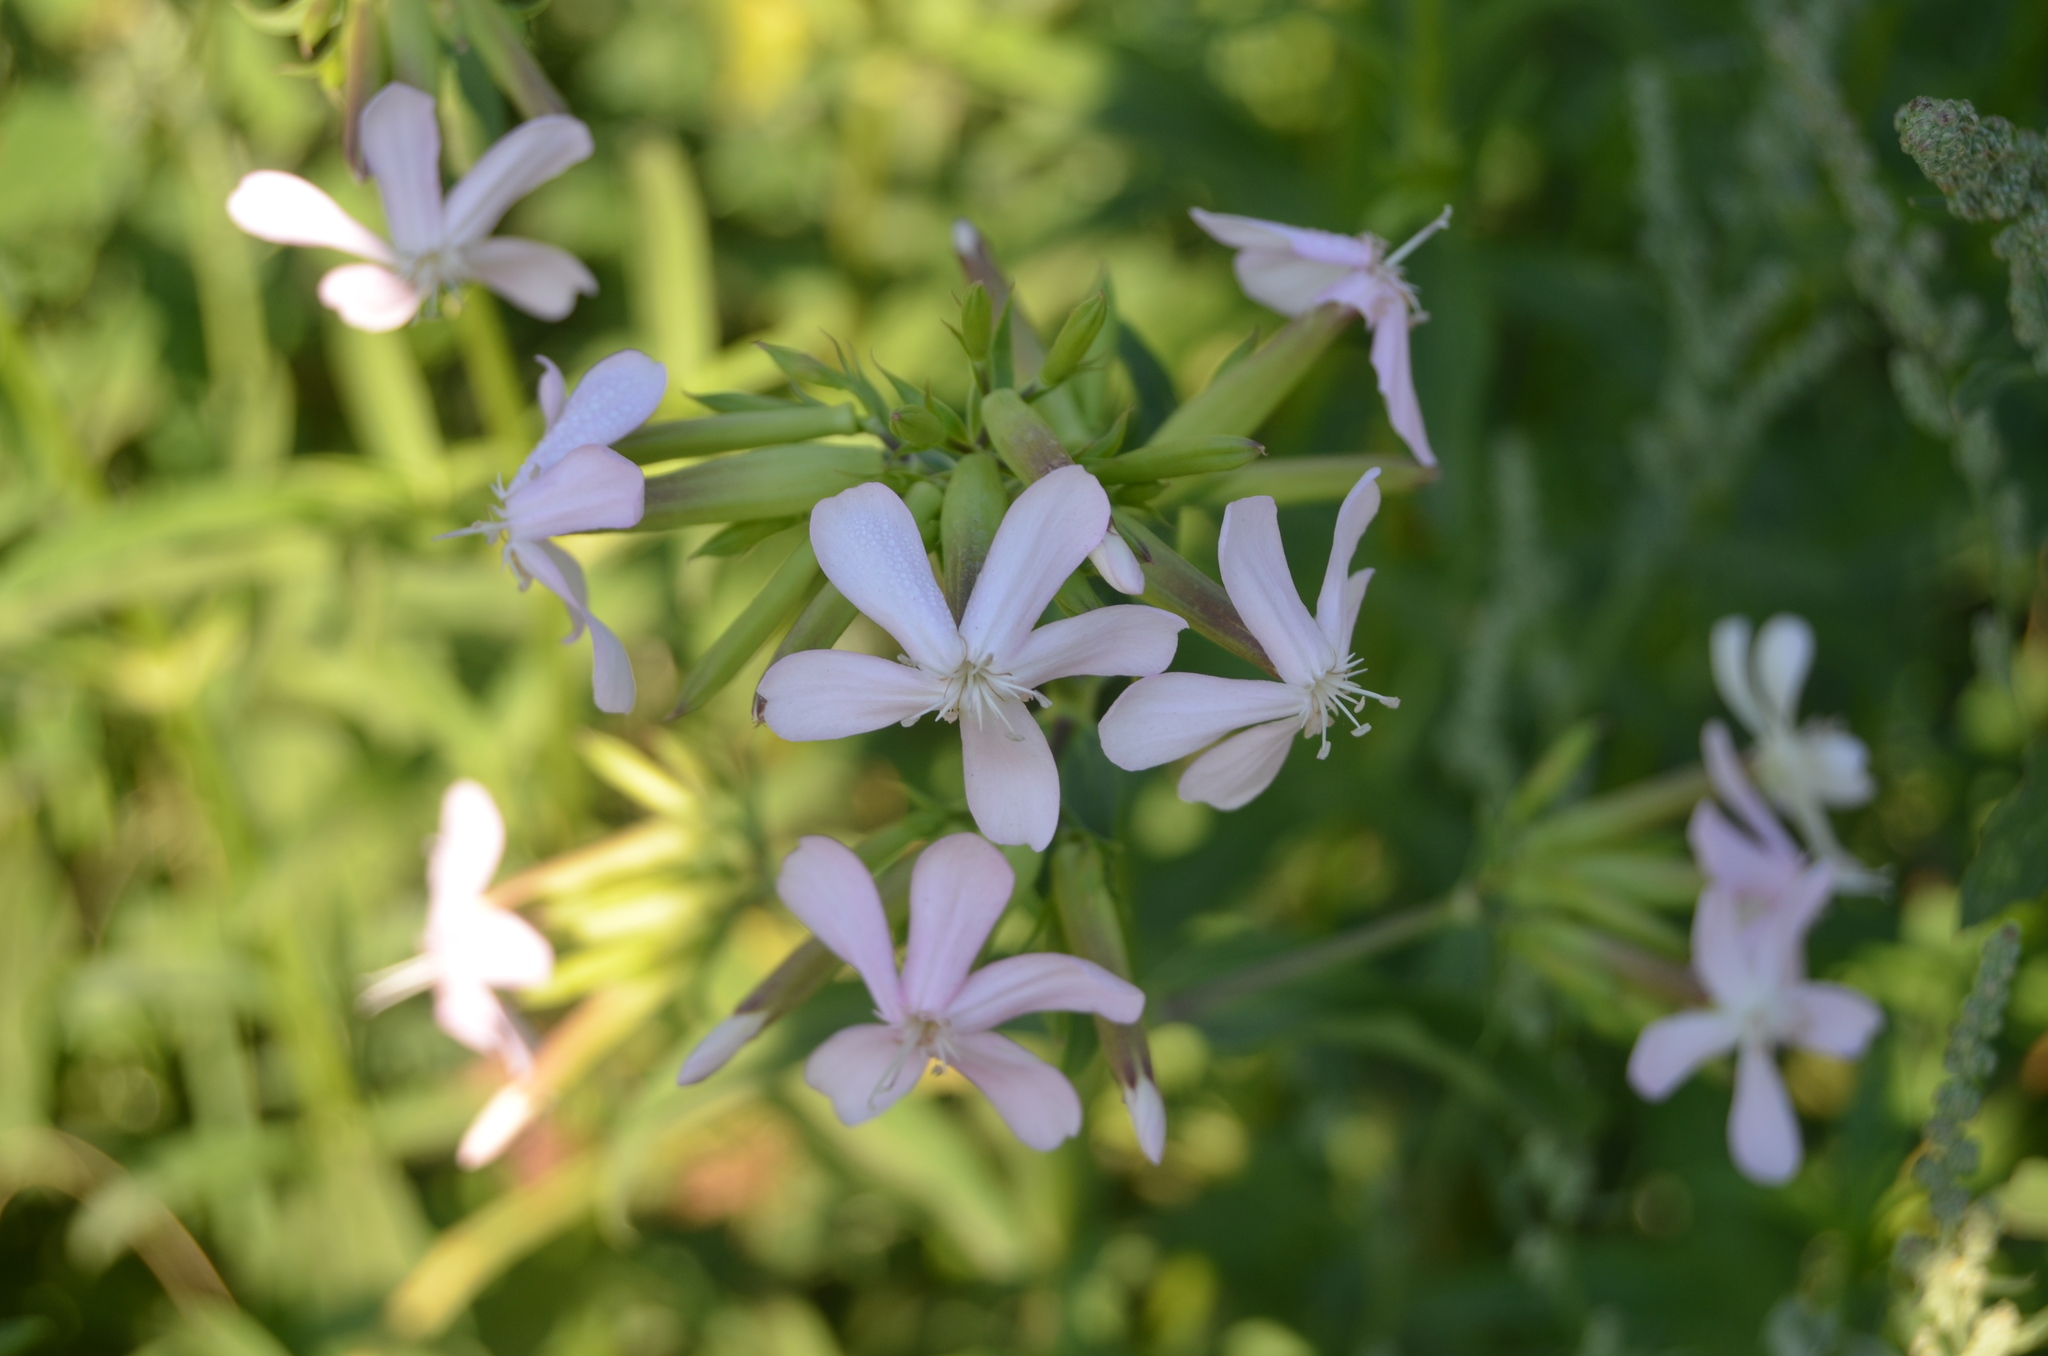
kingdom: Plantae
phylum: Tracheophyta
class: Magnoliopsida
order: Caryophyllales
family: Caryophyllaceae
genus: Saponaria
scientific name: Saponaria officinalis
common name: Soapwort
